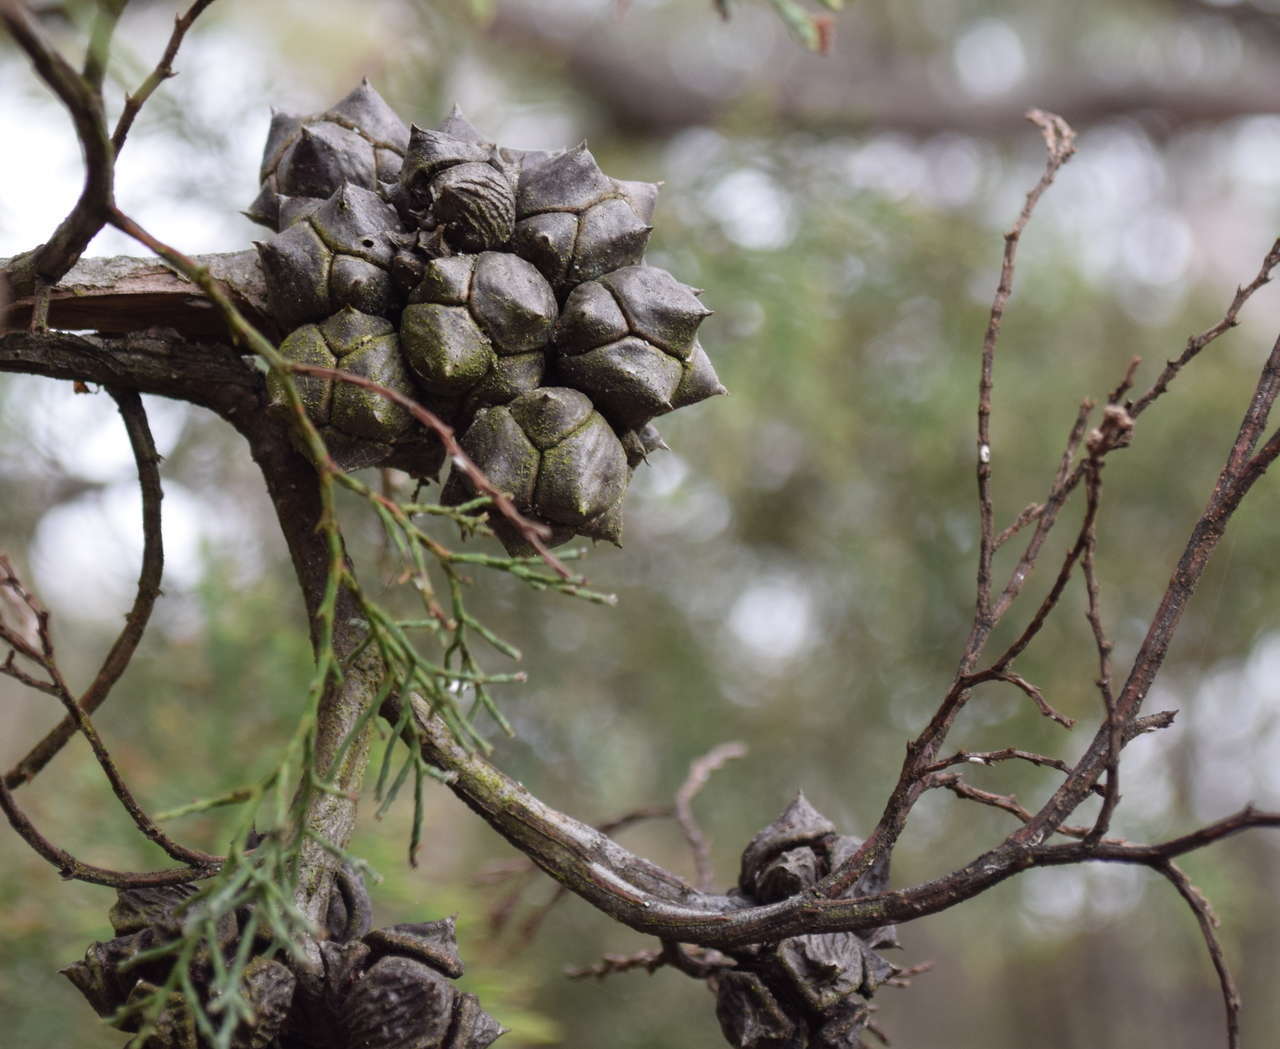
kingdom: Plantae
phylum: Tracheophyta
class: Pinopsida
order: Pinales
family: Cupressaceae
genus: Callitris
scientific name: Callitris rhomboidea
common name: Illawara mountain pine
